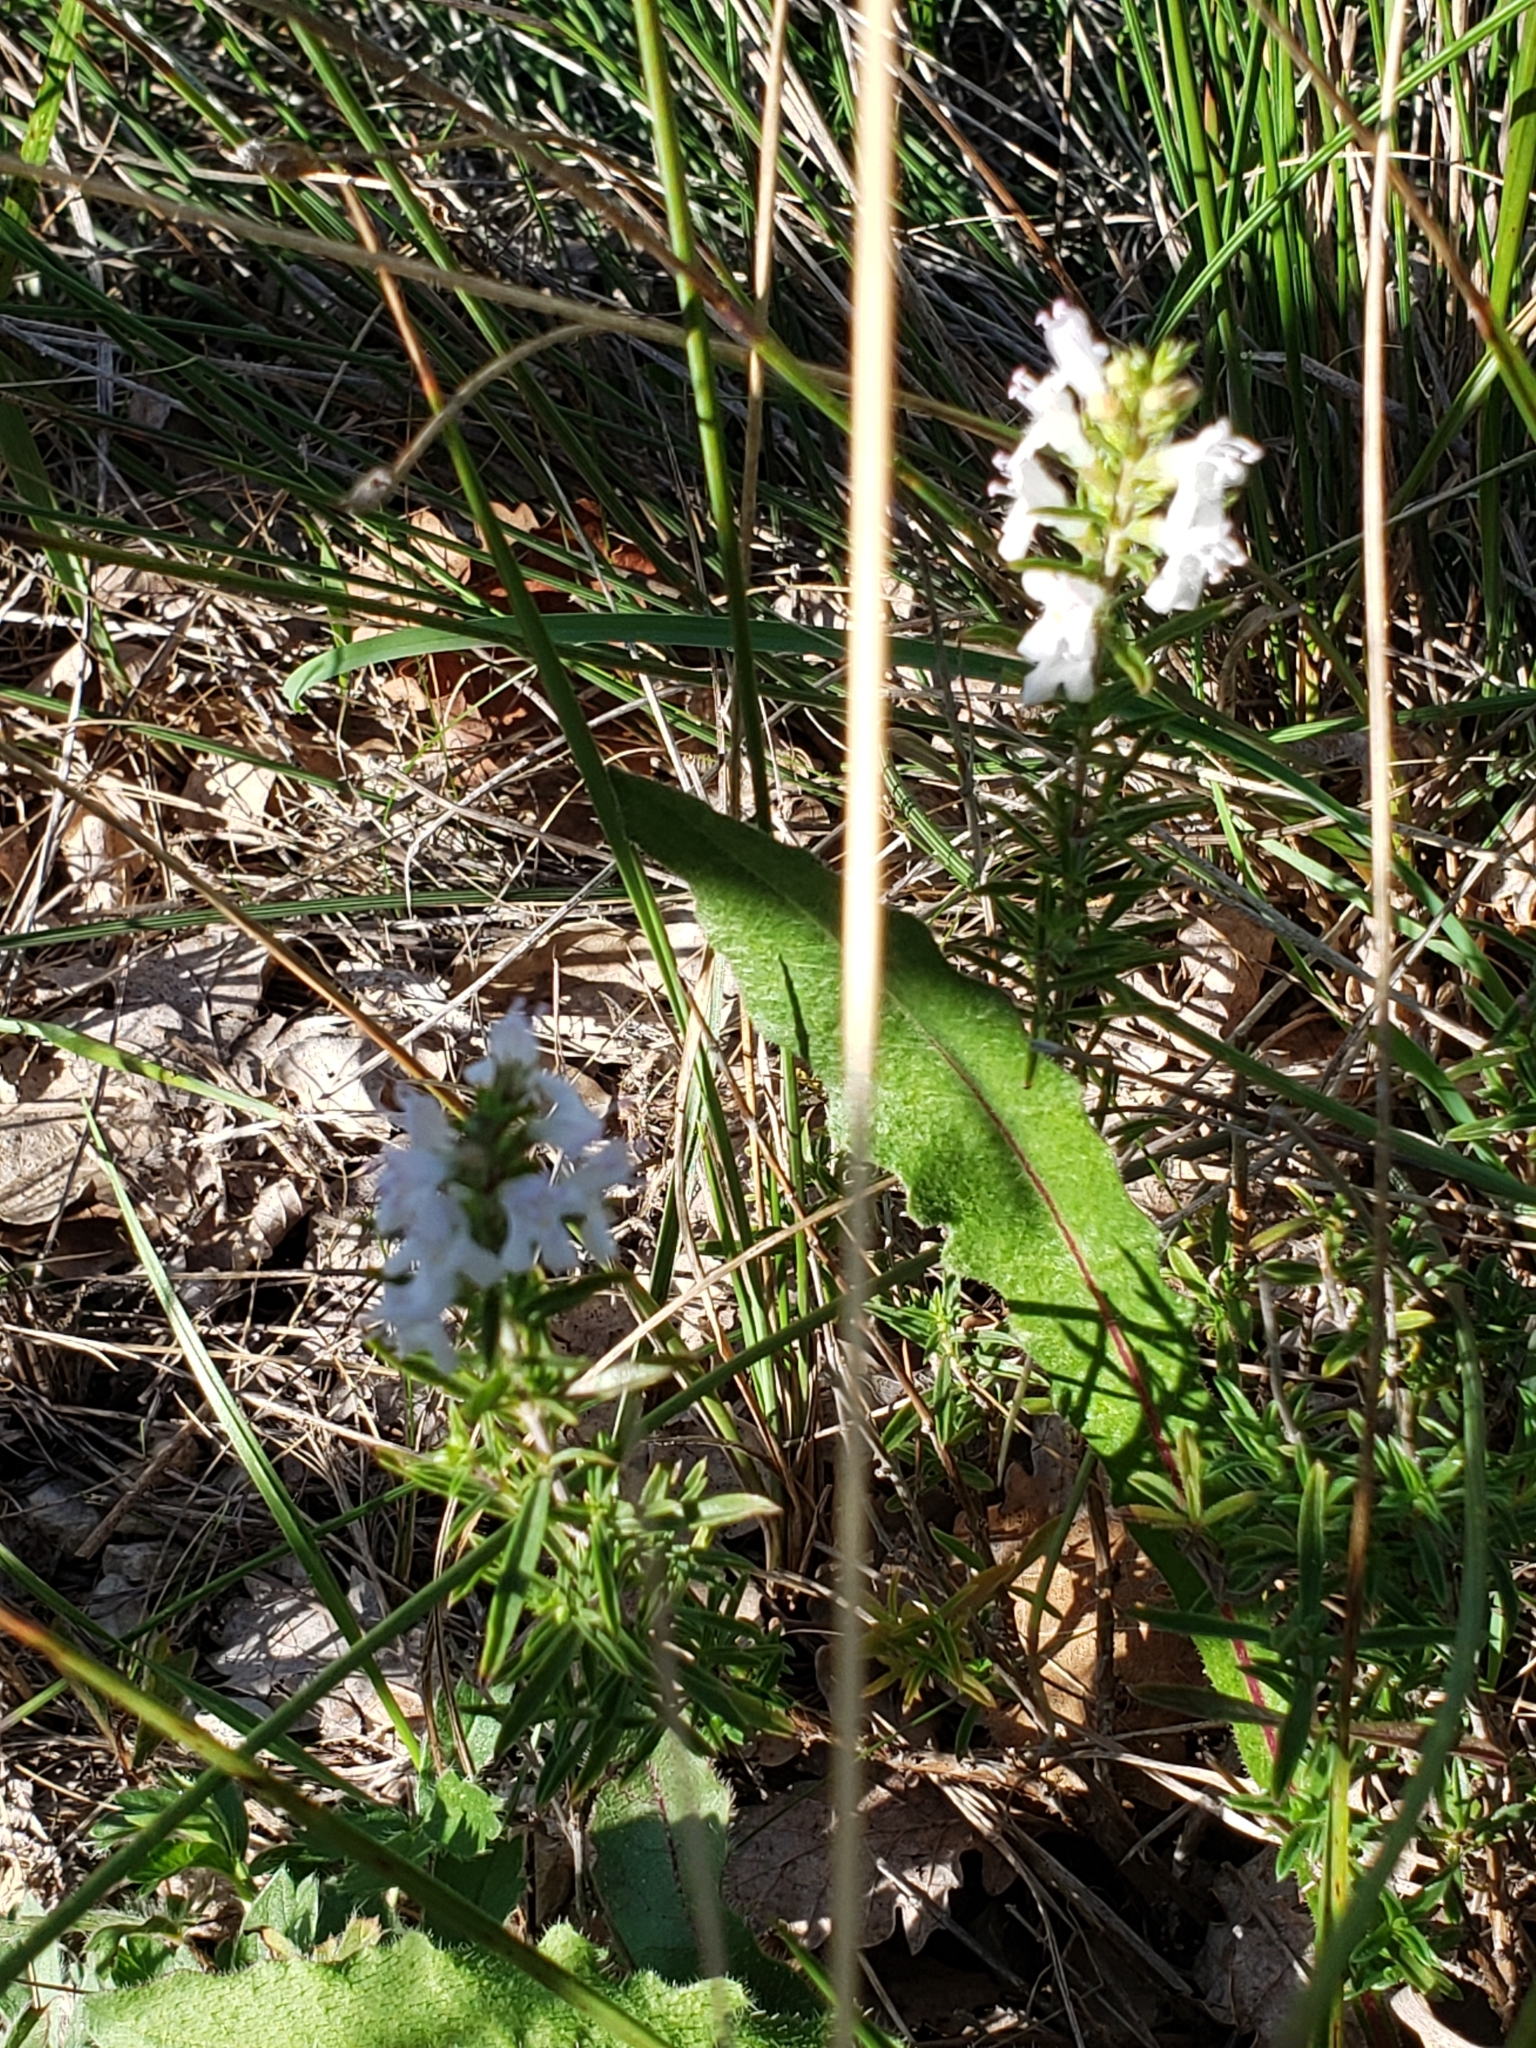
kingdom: Plantae
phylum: Tracheophyta
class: Magnoliopsida
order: Lamiales
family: Lamiaceae
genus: Satureja
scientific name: Satureja montana
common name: Winter savory
